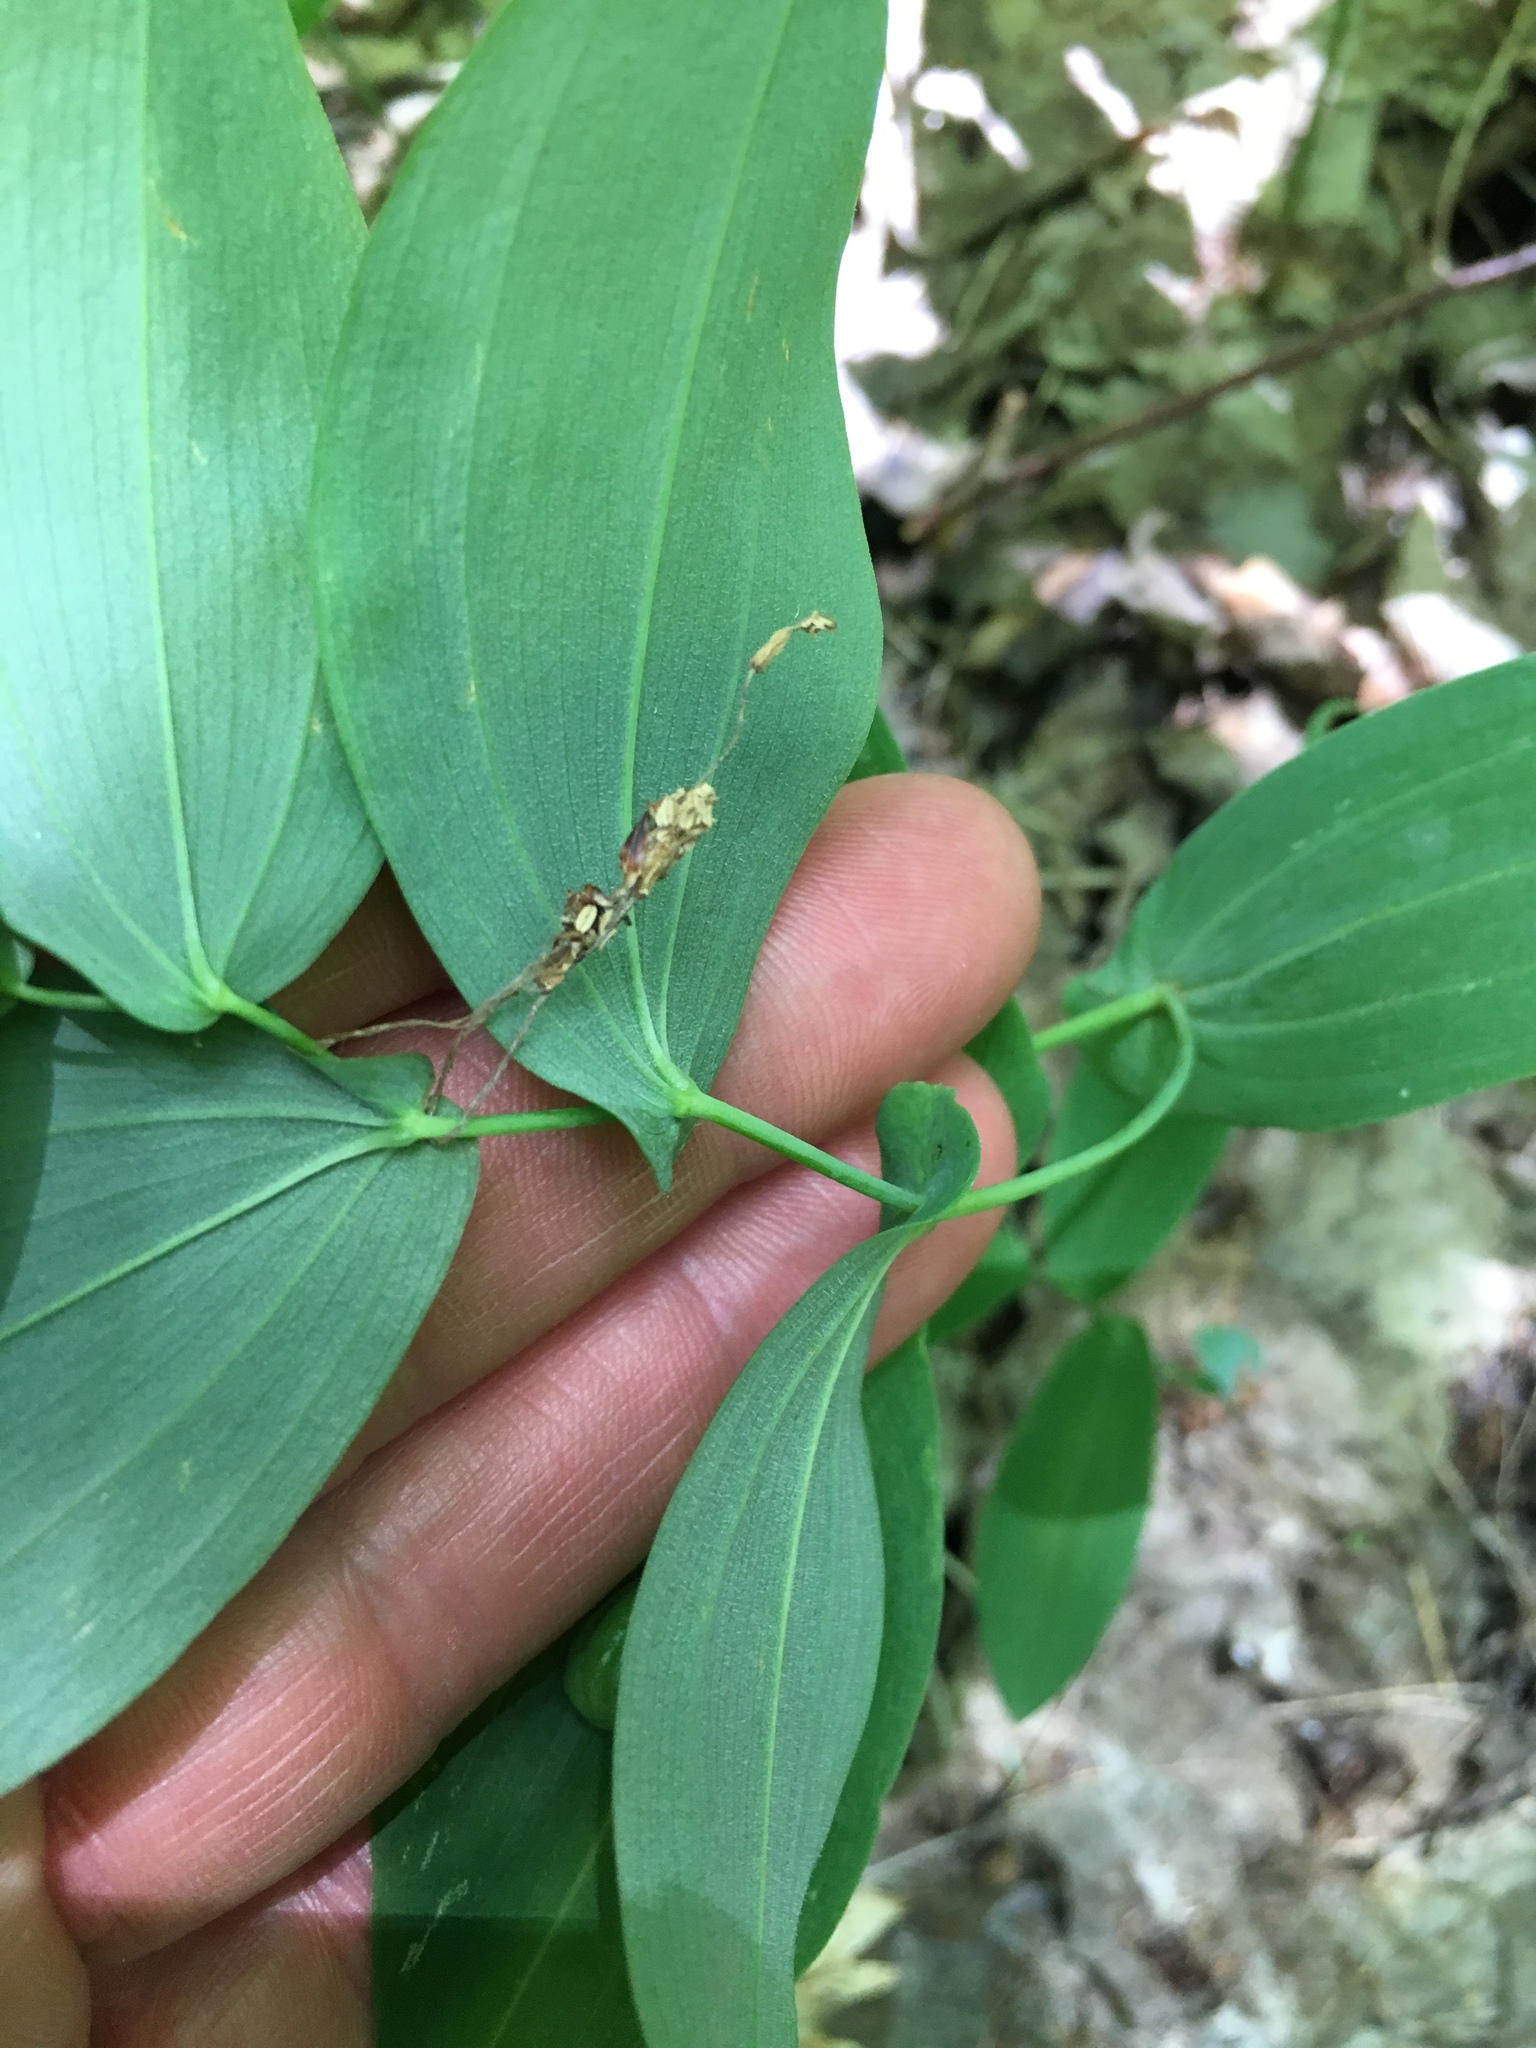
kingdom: Plantae
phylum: Tracheophyta
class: Liliopsida
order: Liliales
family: Colchicaceae
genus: Uvularia
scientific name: Uvularia grandiflora
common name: Bellwort
